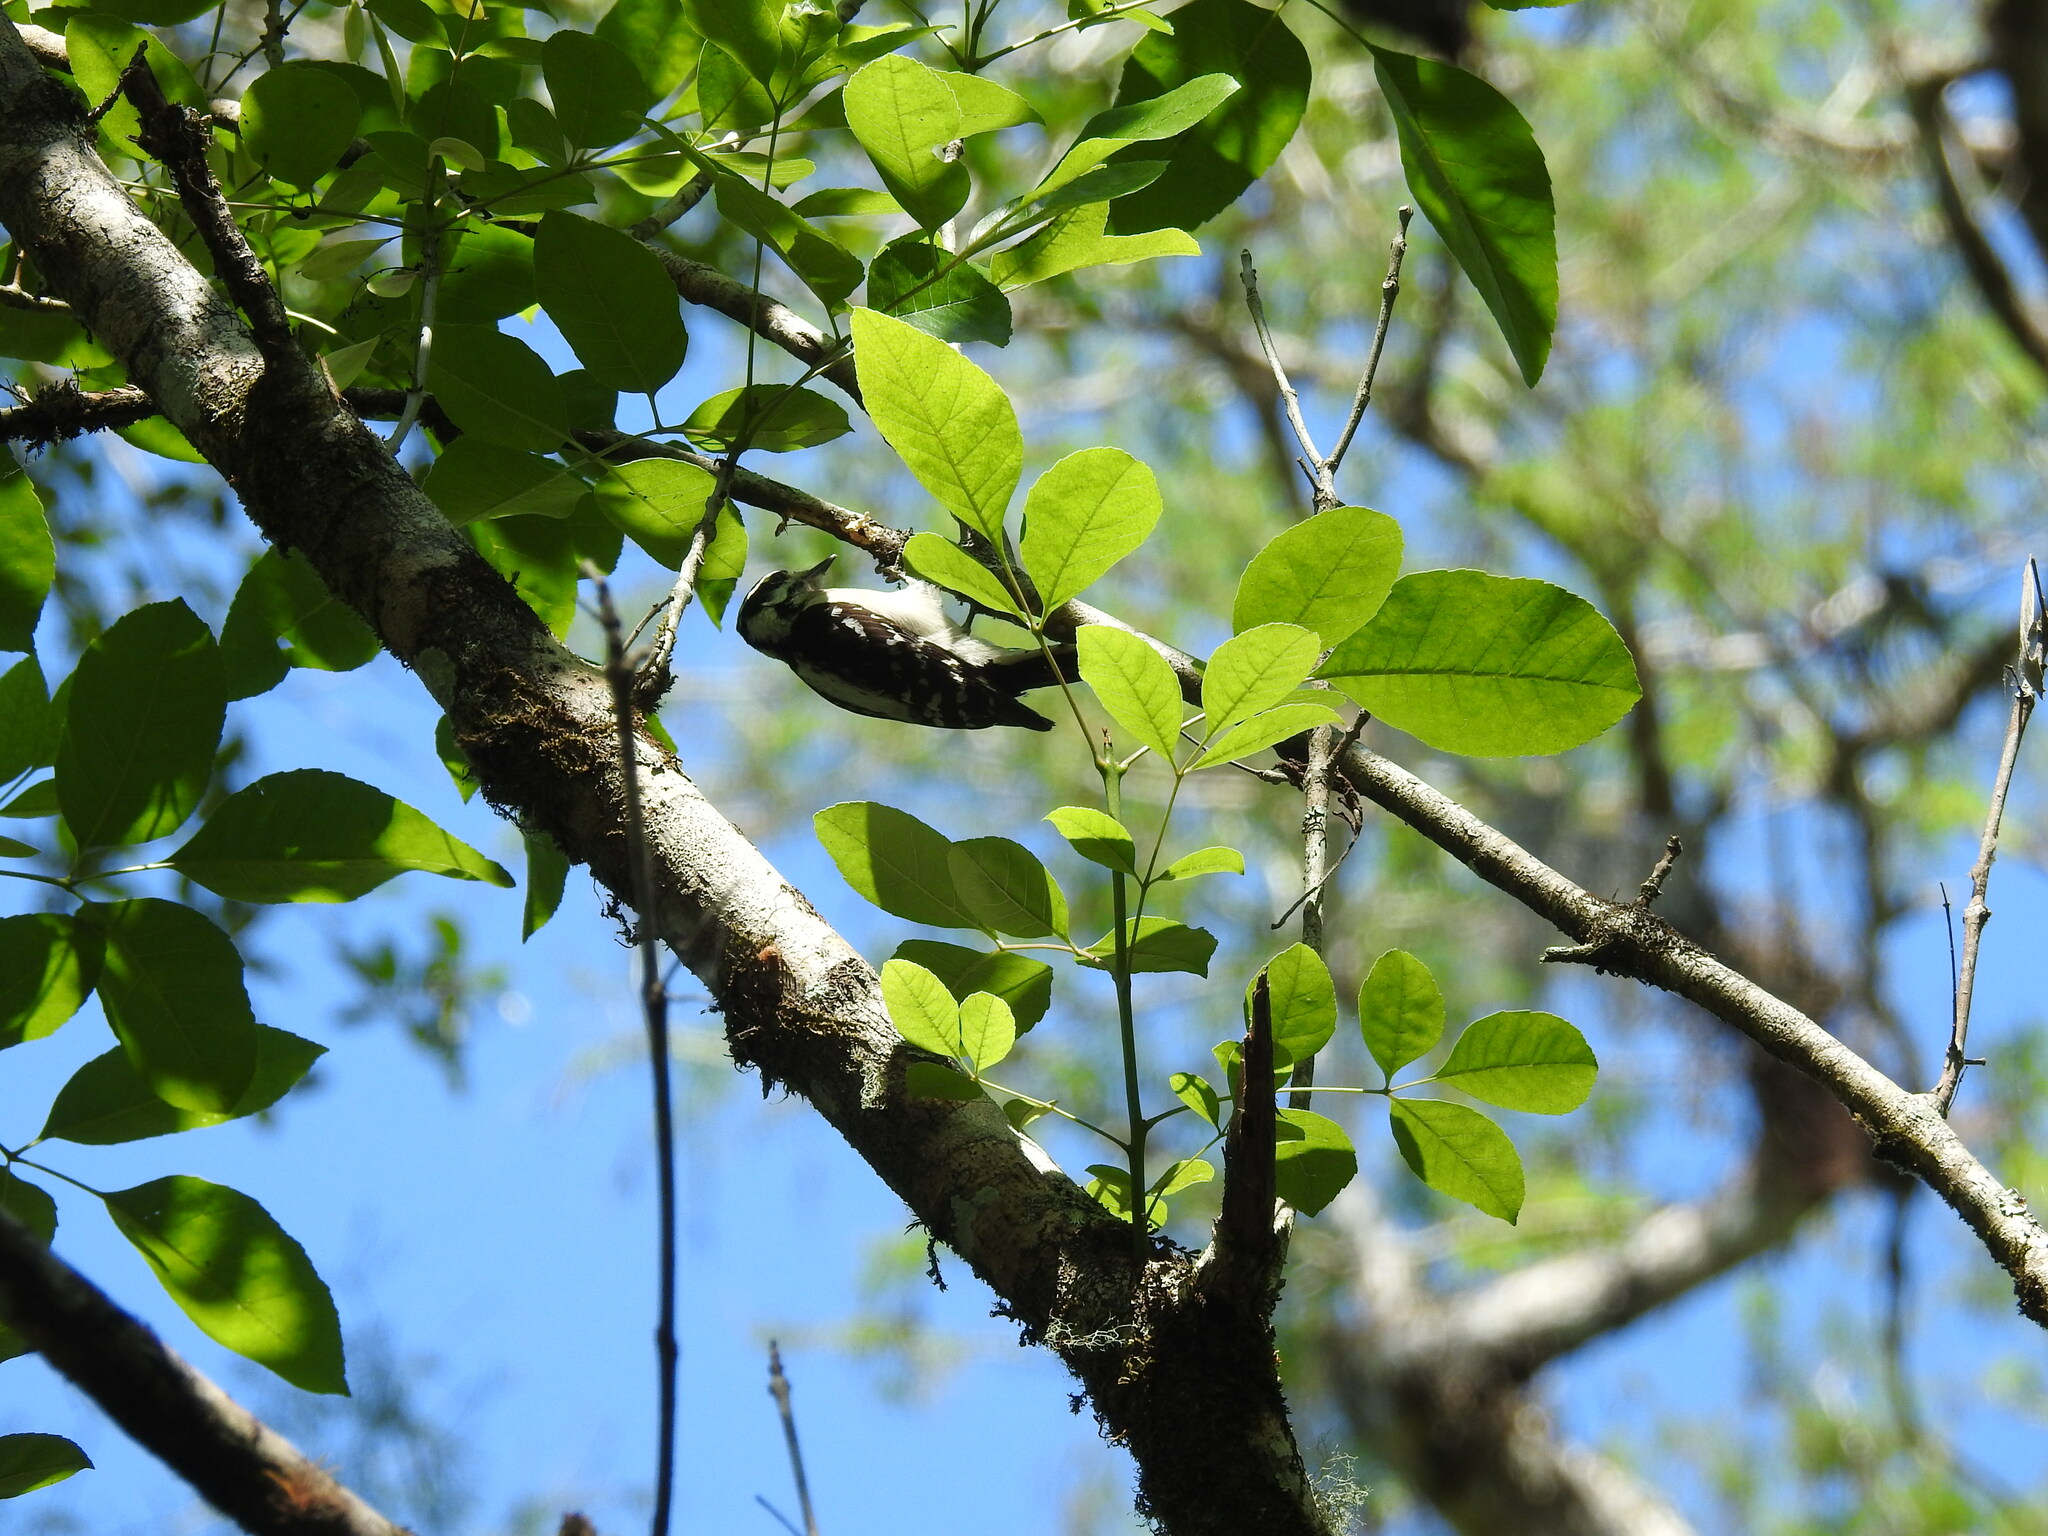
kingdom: Animalia
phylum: Chordata
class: Aves
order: Piciformes
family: Picidae
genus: Dryobates
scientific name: Dryobates pubescens
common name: Downy woodpecker
